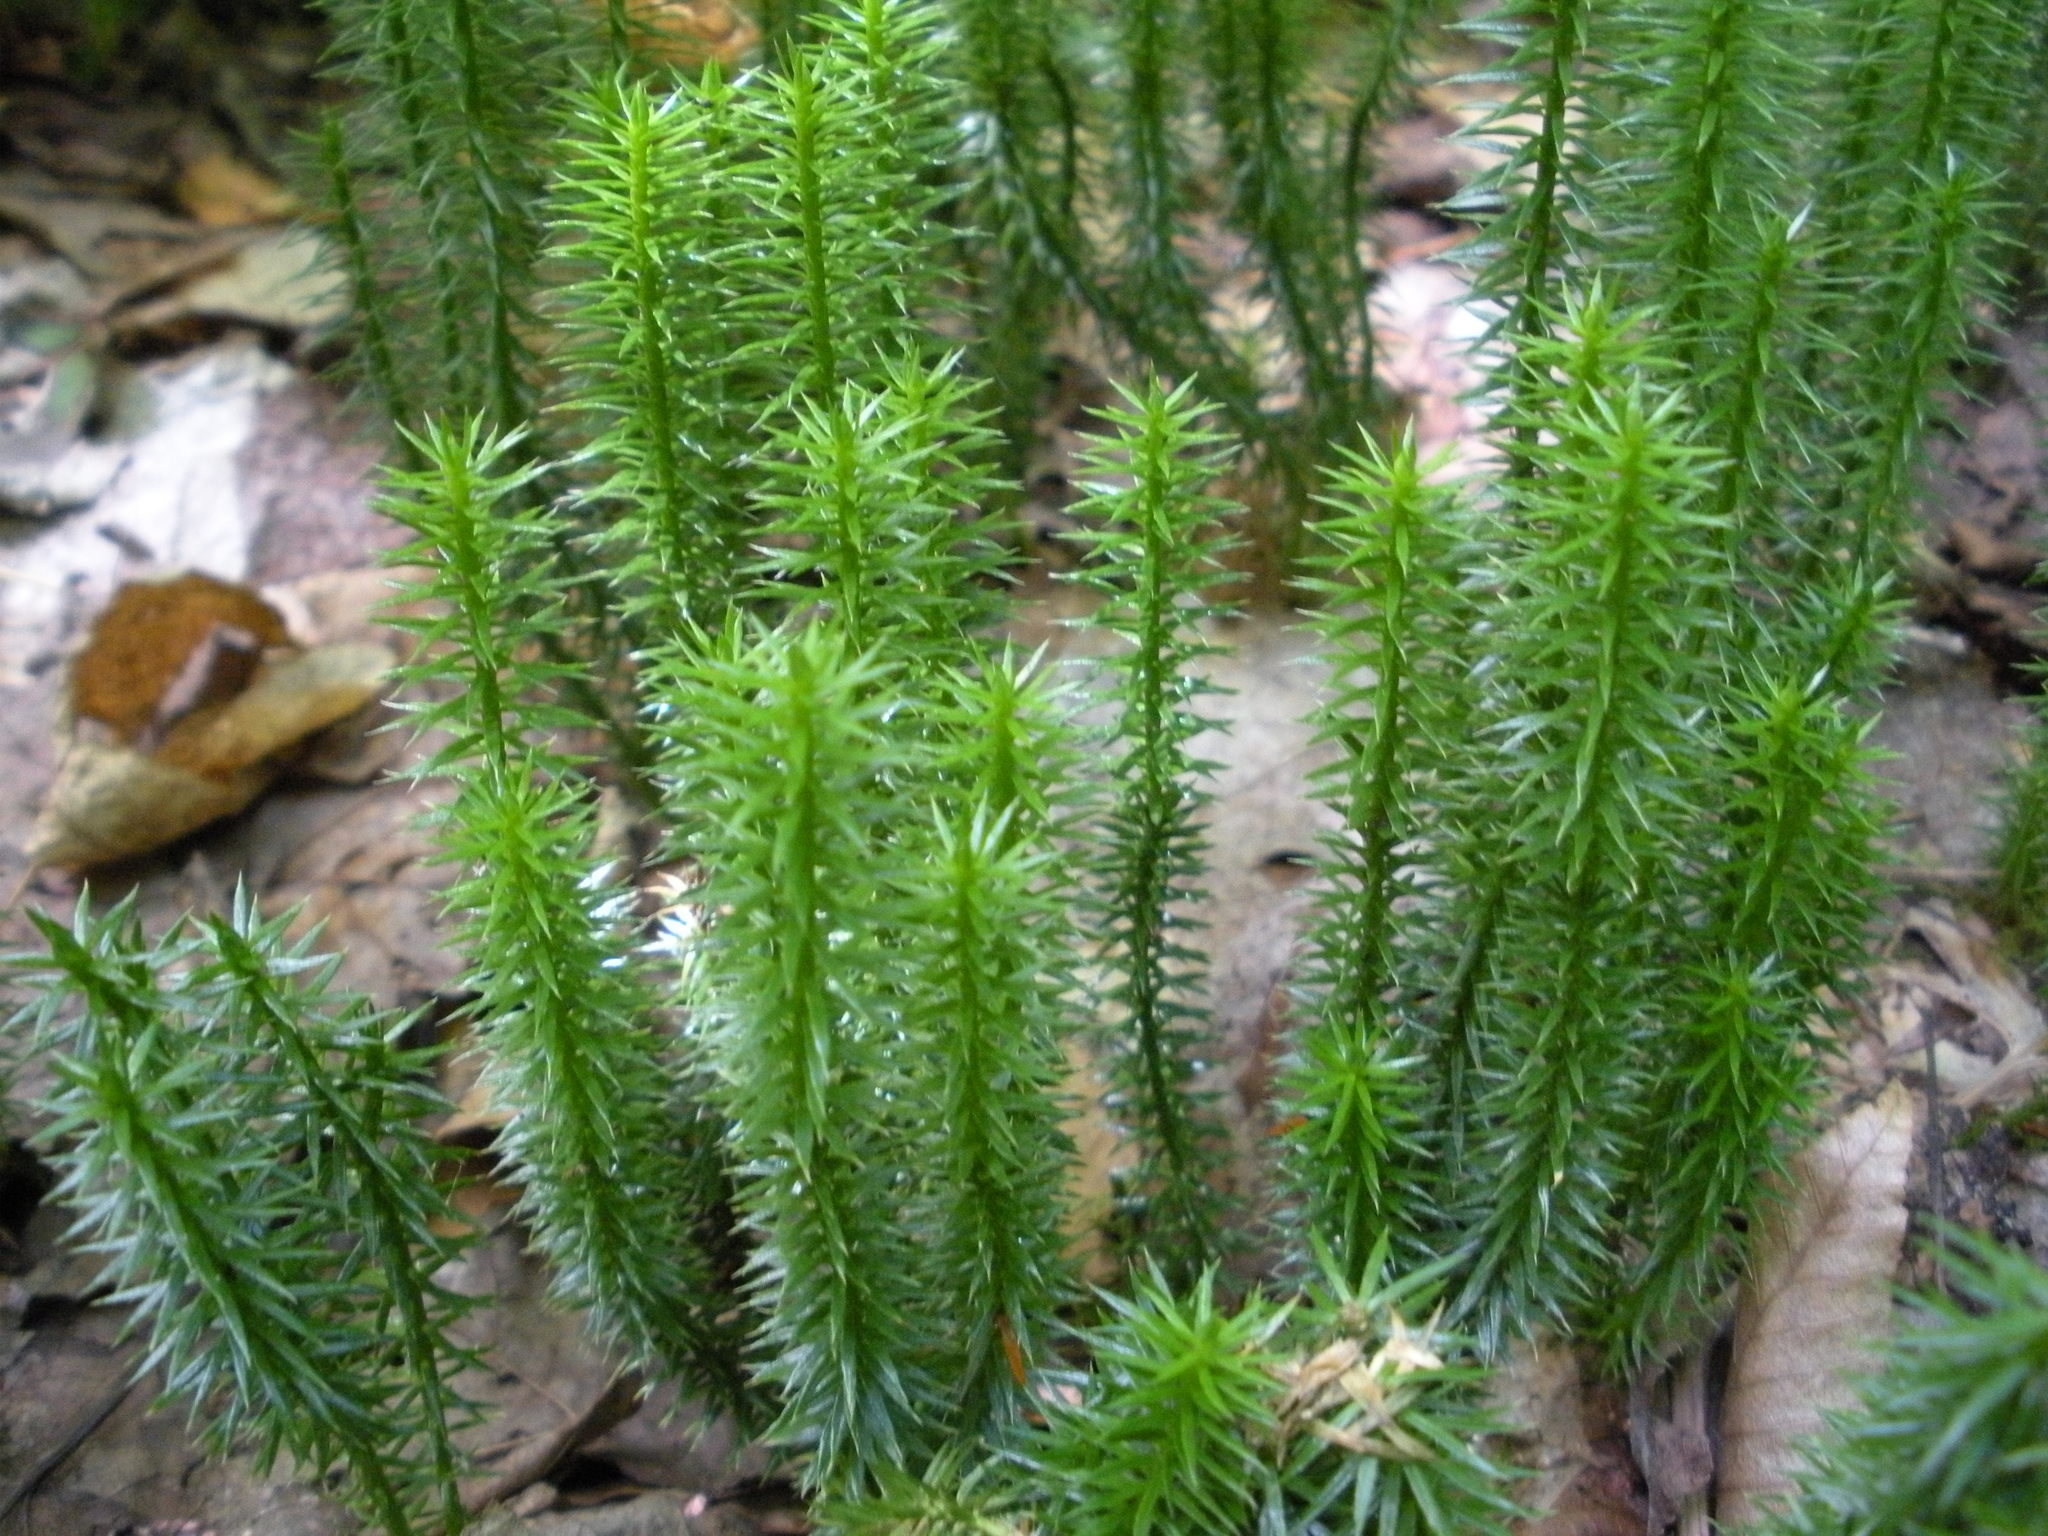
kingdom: Plantae
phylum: Tracheophyta
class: Lycopodiopsida
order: Lycopodiales
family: Lycopodiaceae
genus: Spinulum
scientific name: Spinulum annotinum
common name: Interrupted club-moss
